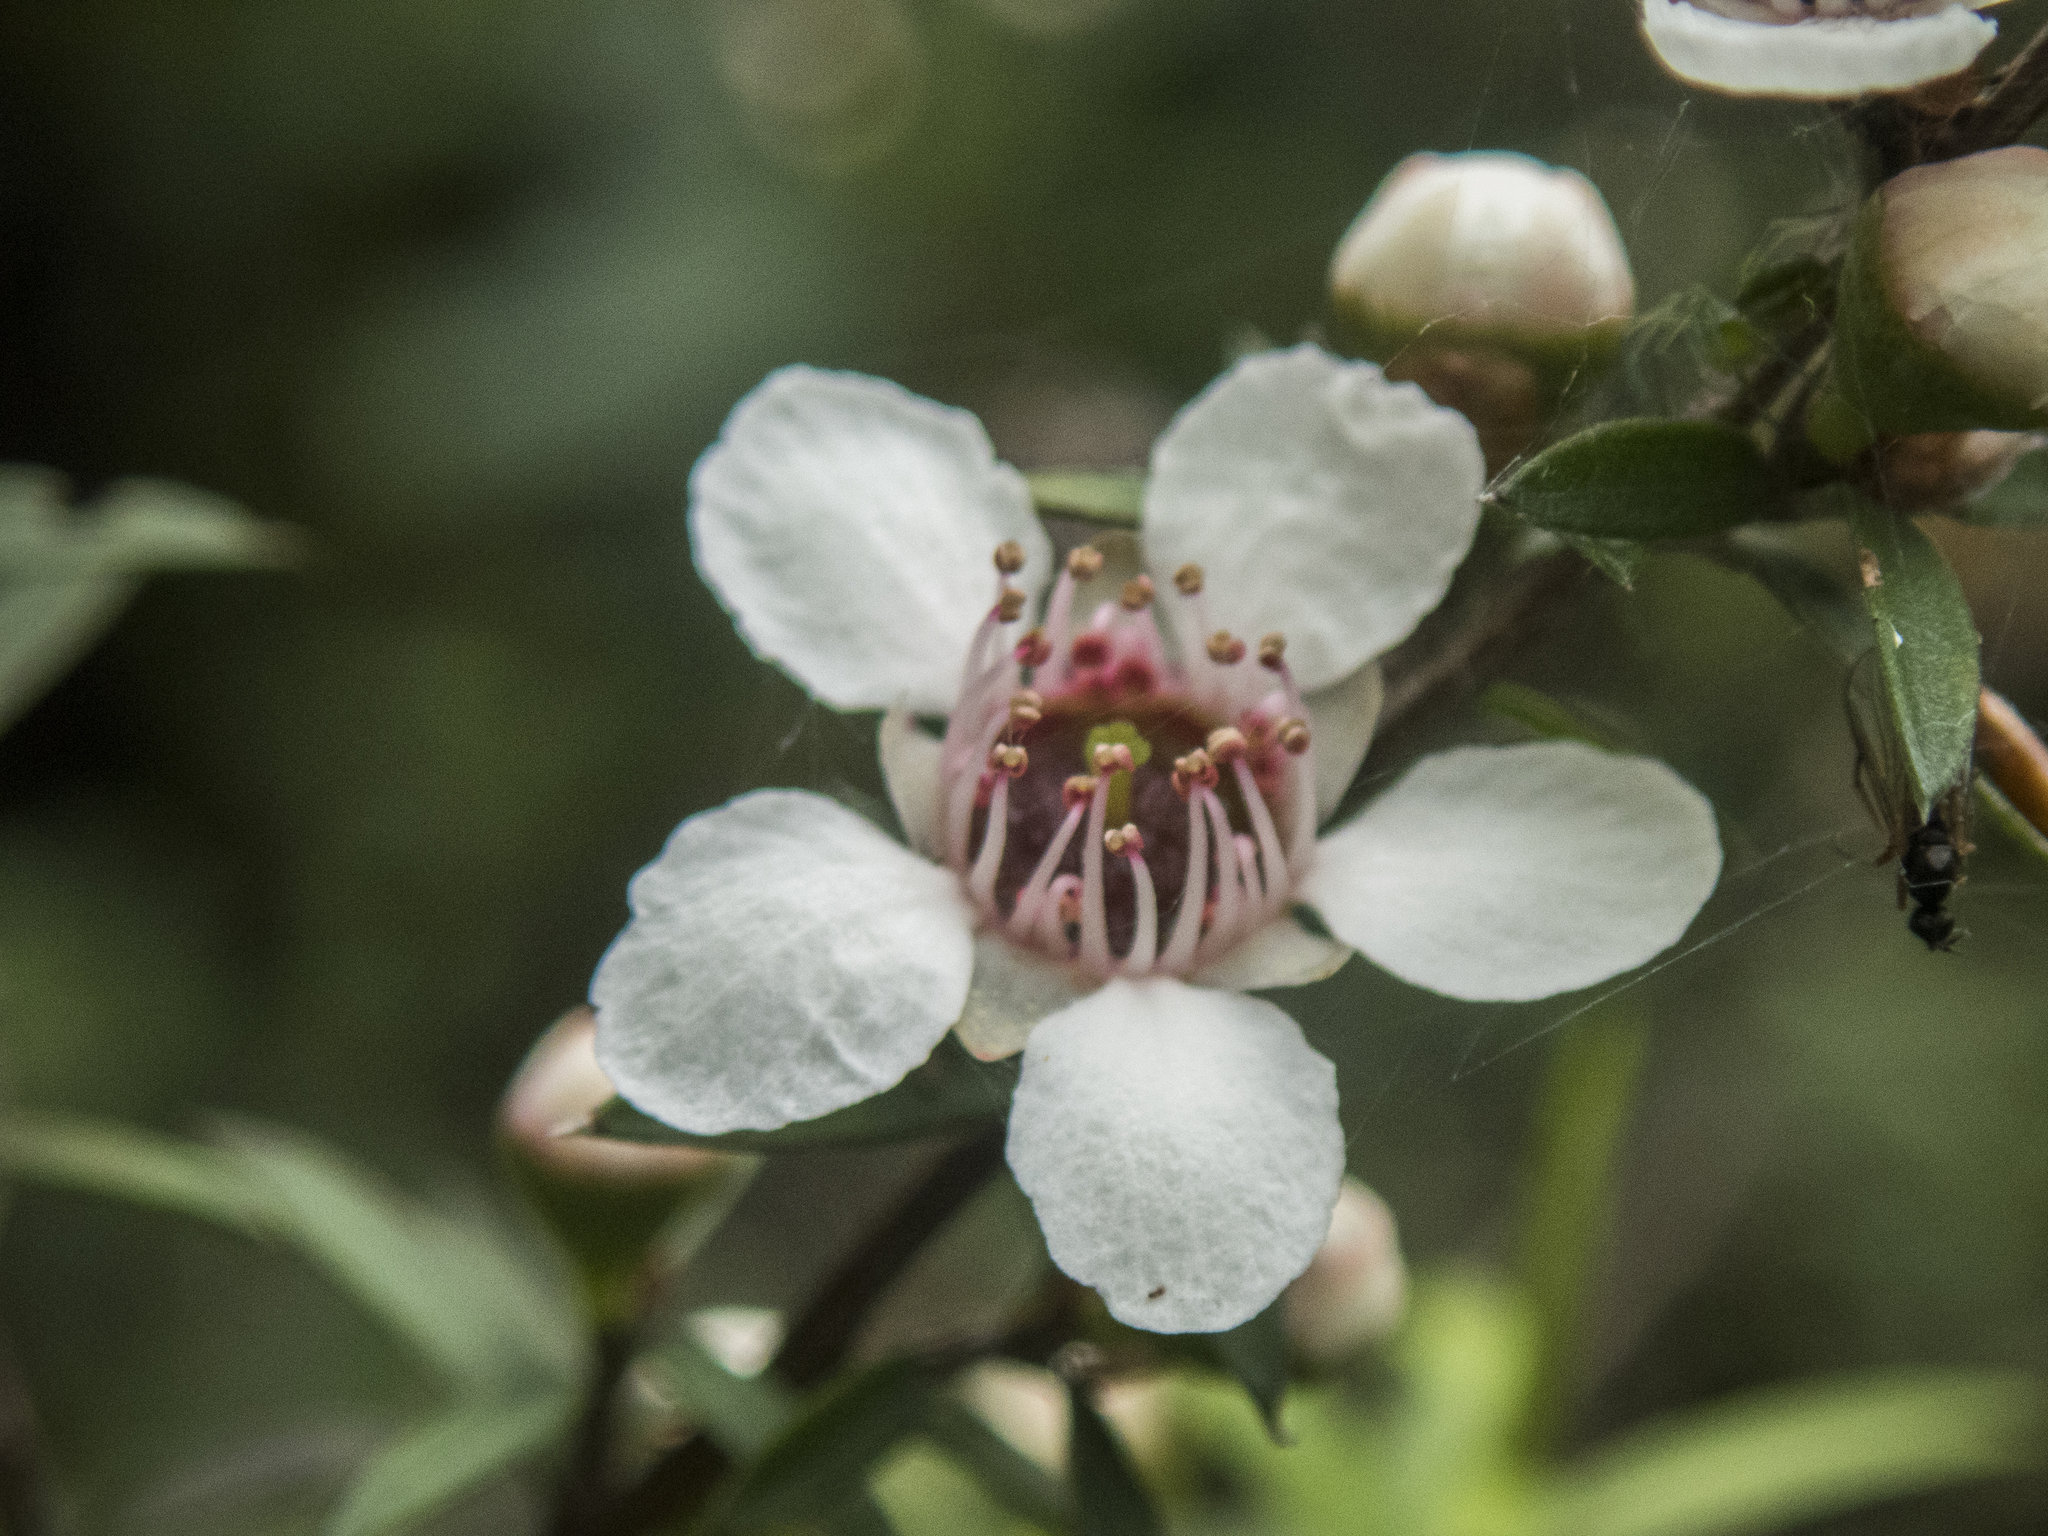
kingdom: Plantae
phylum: Tracheophyta
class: Magnoliopsida
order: Myrtales
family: Myrtaceae
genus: Leptospermum
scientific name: Leptospermum scoparium
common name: Broom tea-tree
